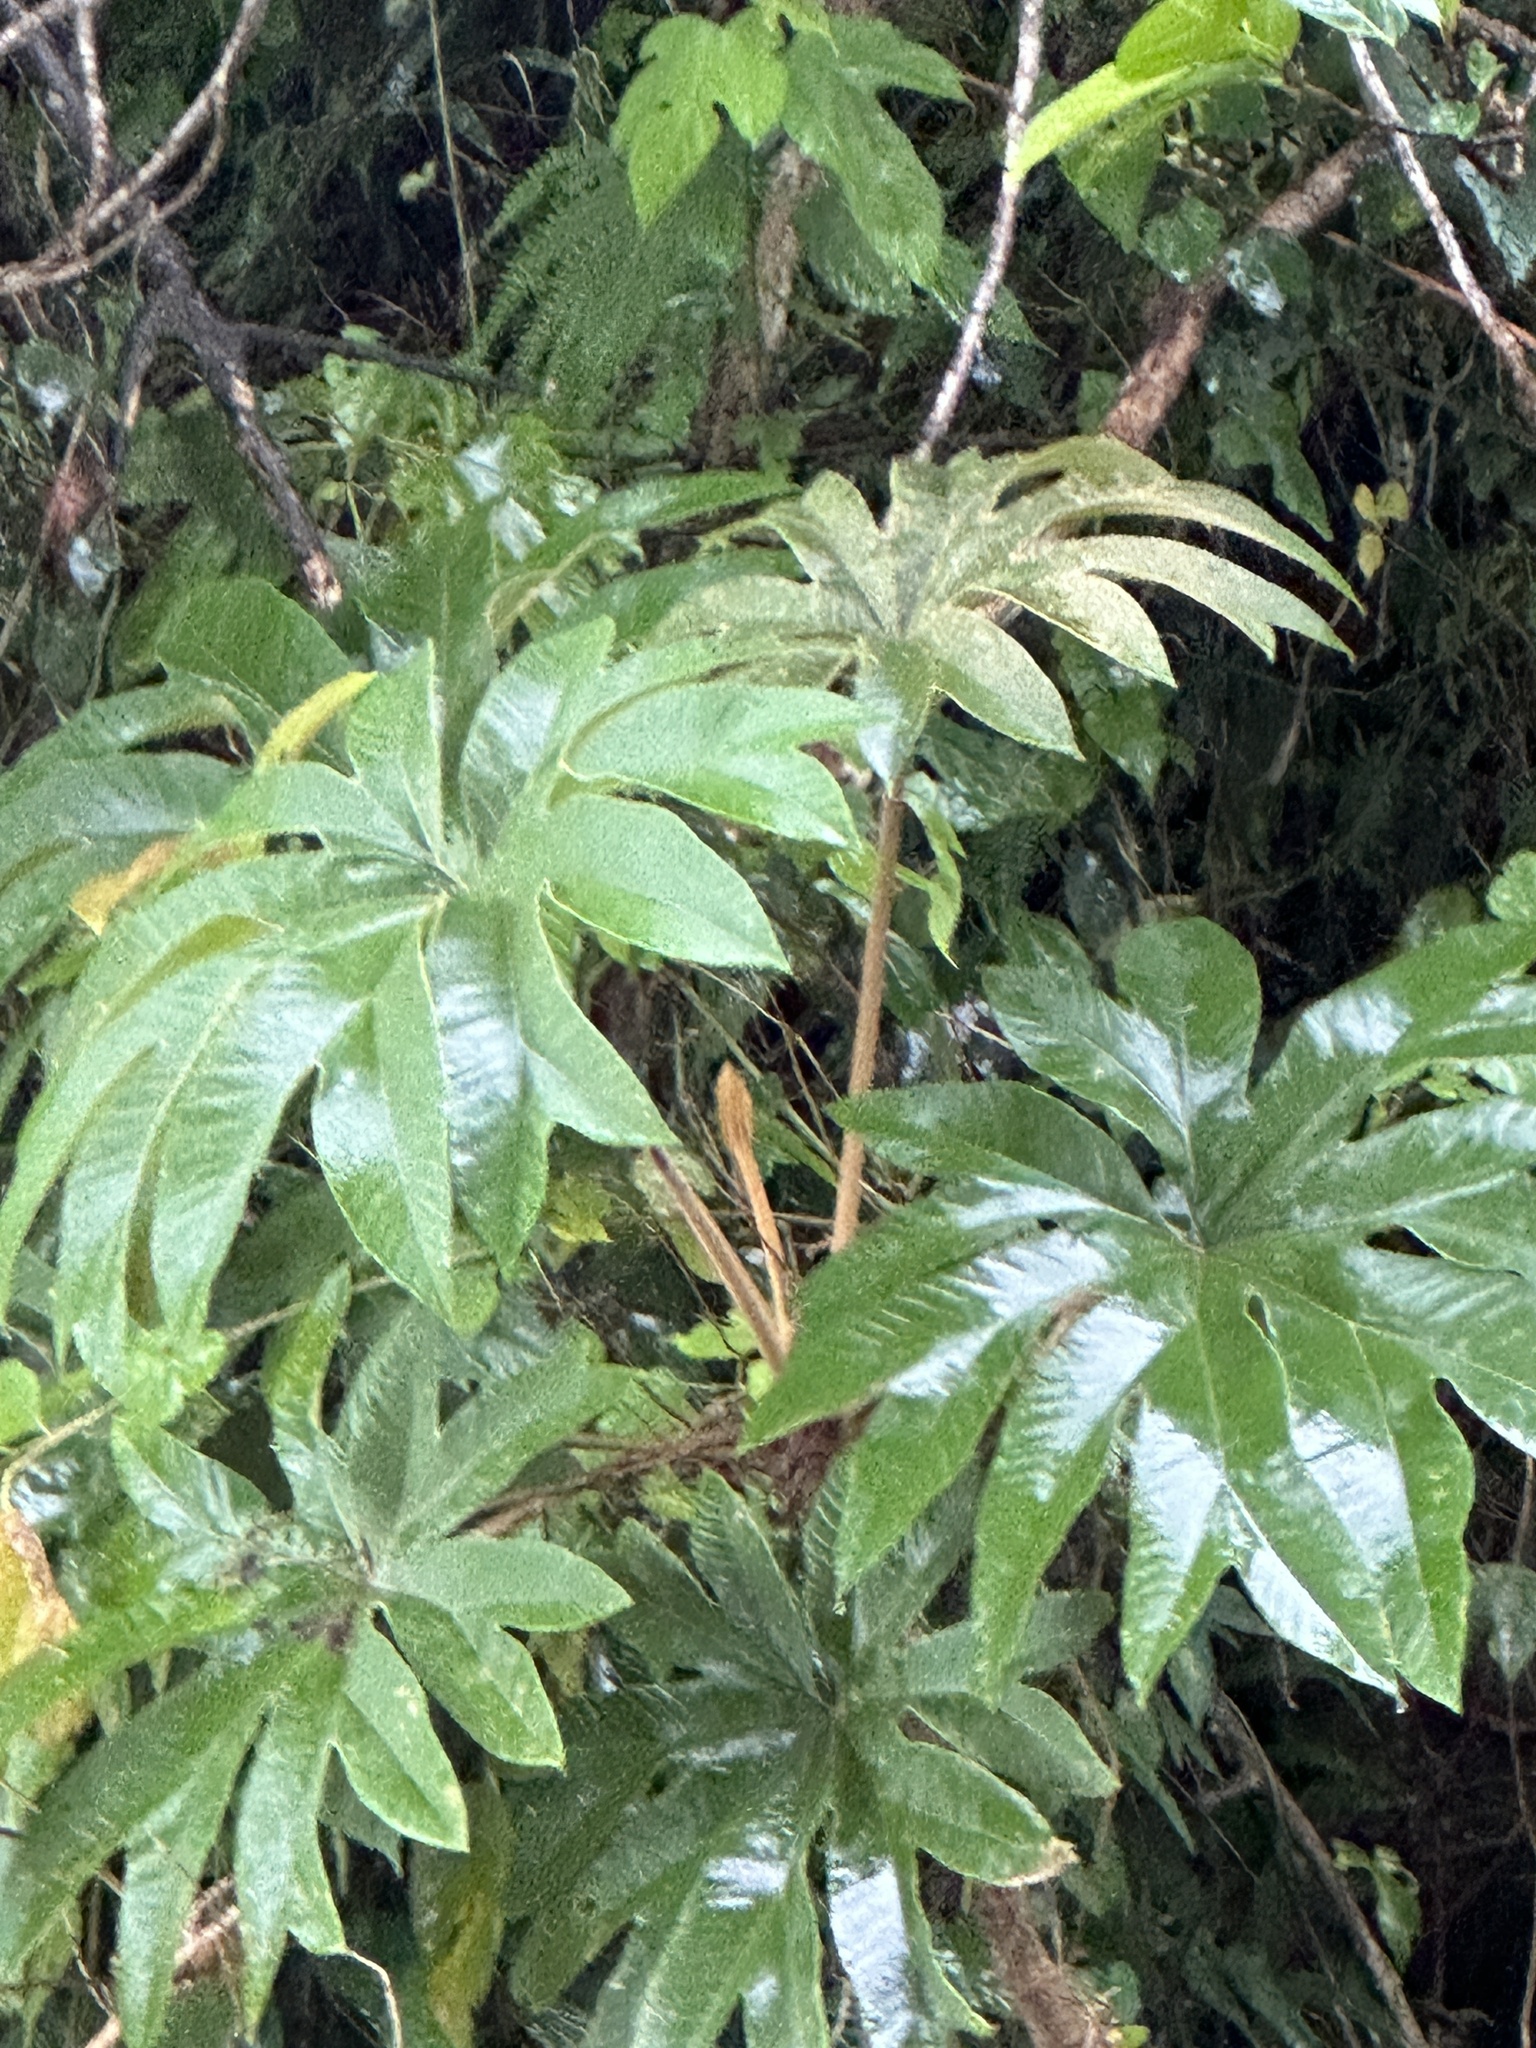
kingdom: Plantae
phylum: Tracheophyta
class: Magnoliopsida
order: Apiales
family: Araliaceae
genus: Tetrapanax
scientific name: Tetrapanax papyrifer
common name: Rice-paper plant
